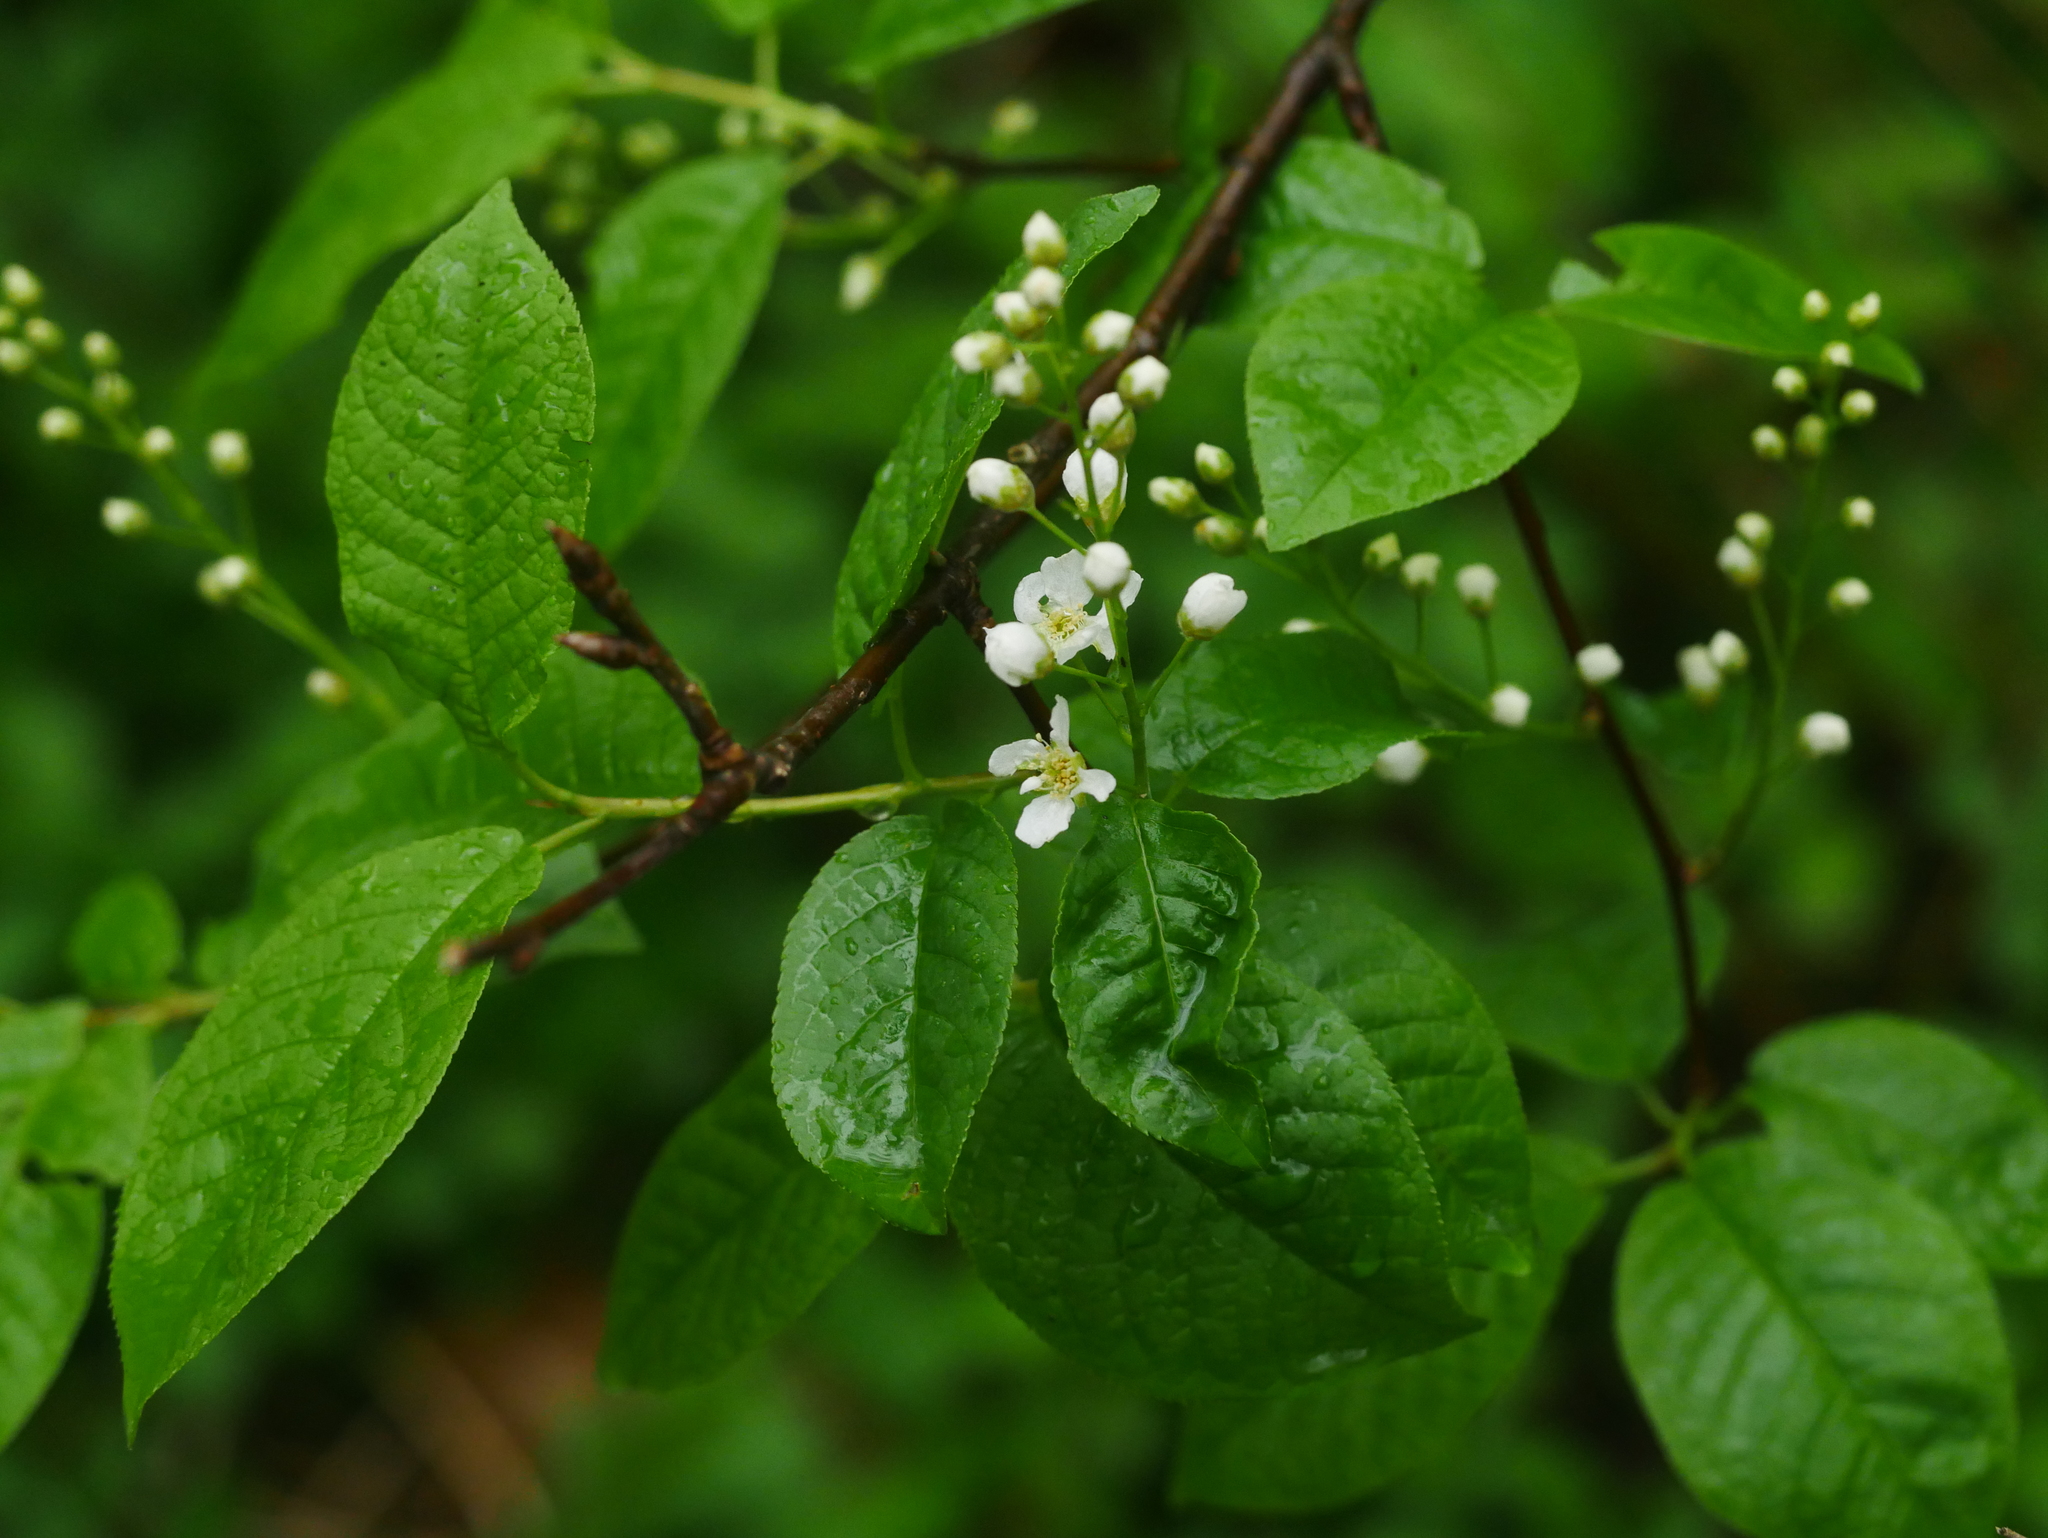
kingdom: Plantae
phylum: Tracheophyta
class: Magnoliopsida
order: Rosales
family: Rosaceae
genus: Prunus
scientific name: Prunus padus
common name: Bird cherry
